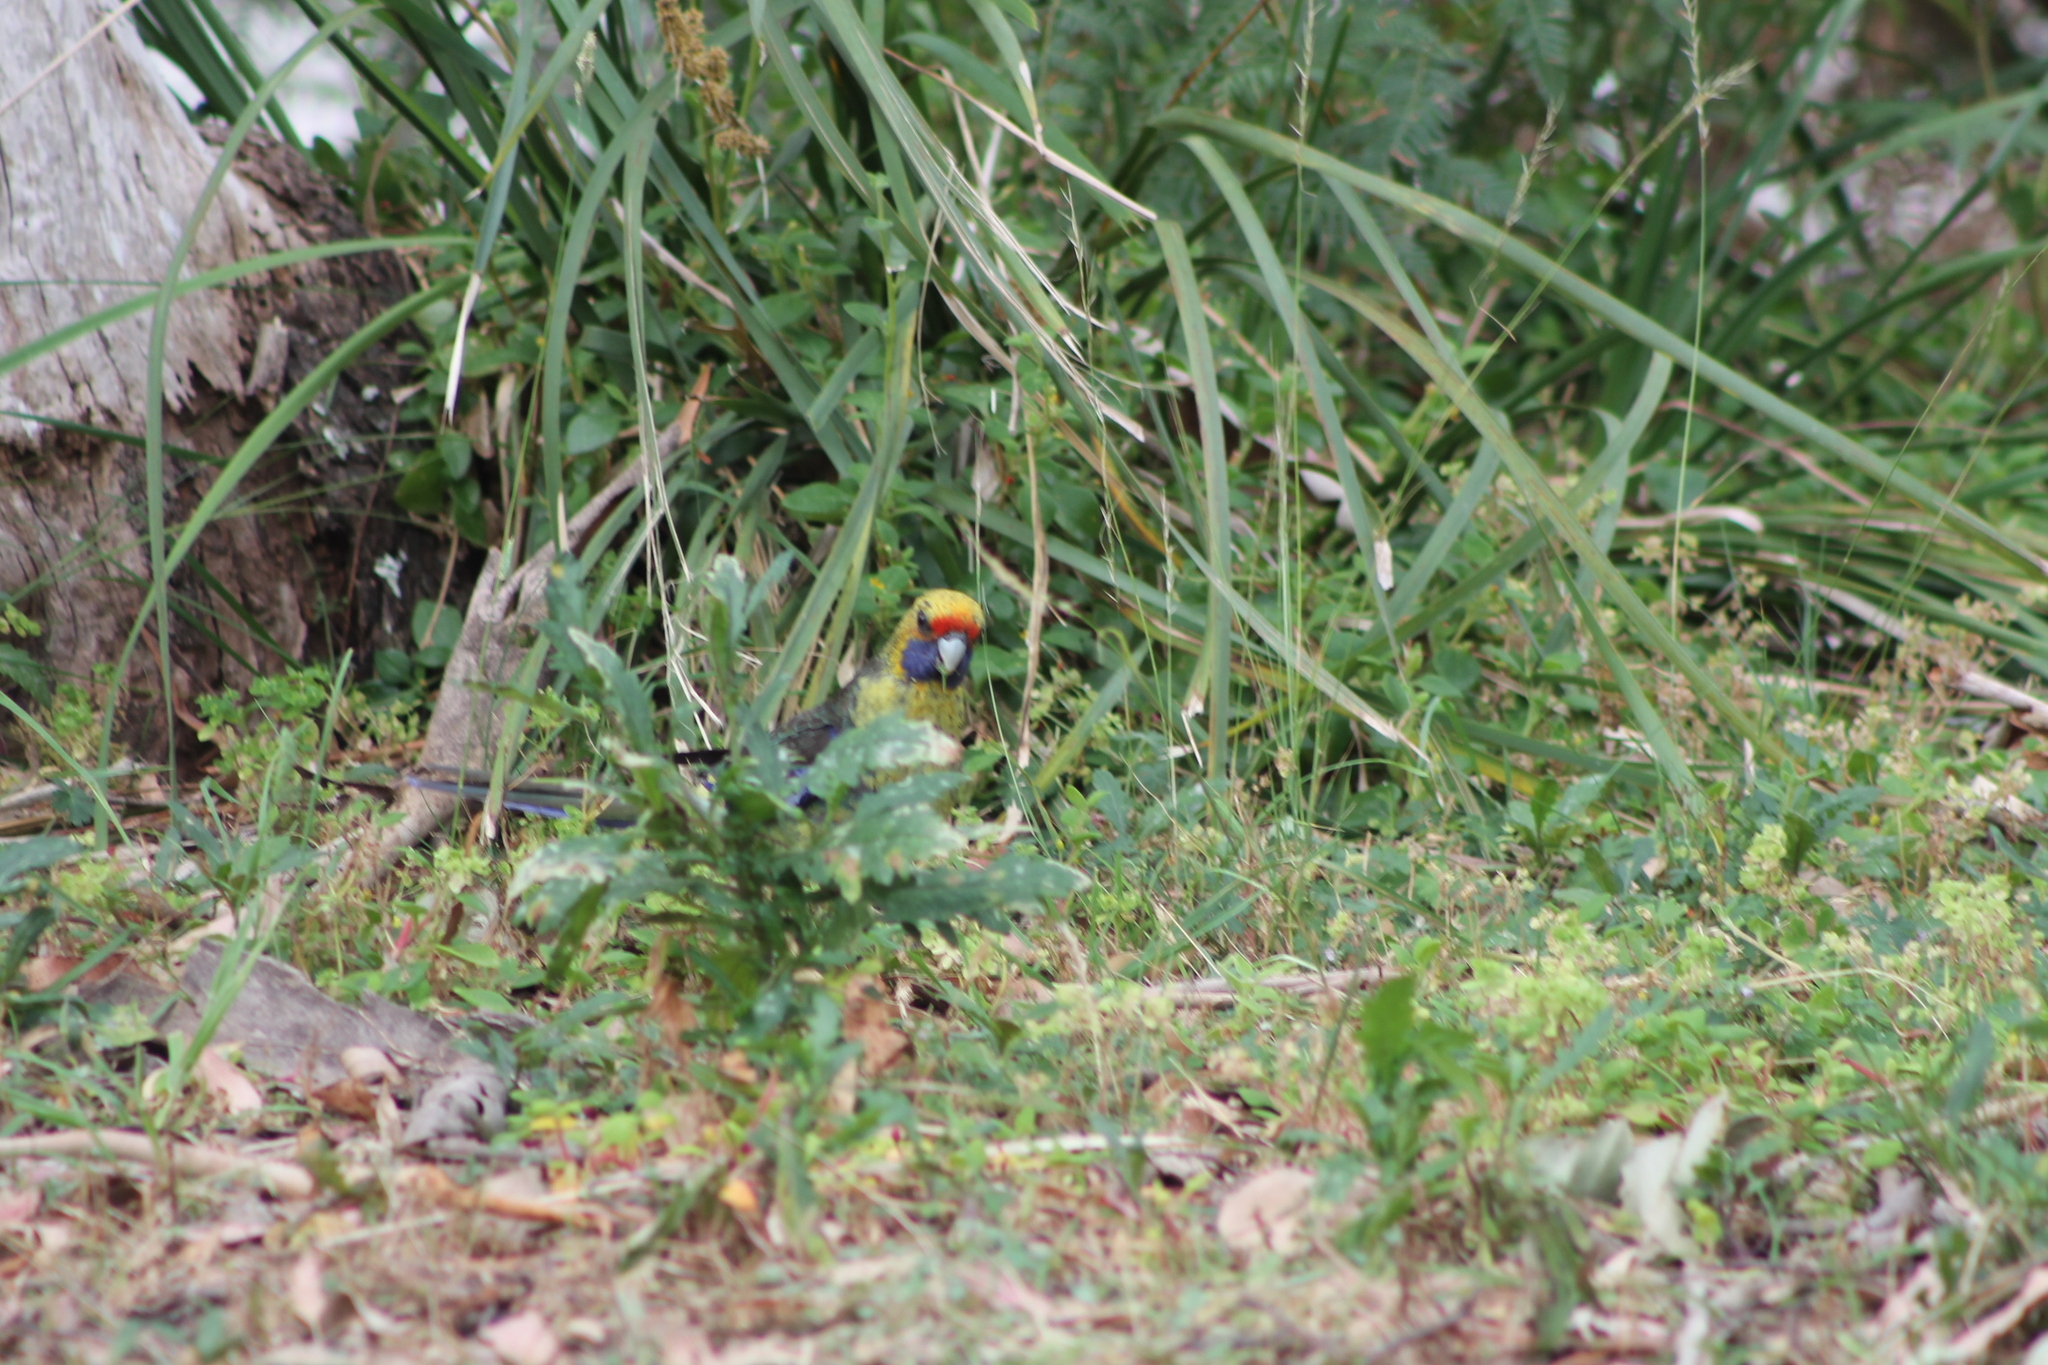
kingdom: Animalia
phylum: Chordata
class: Aves
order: Psittaciformes
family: Psittacidae
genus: Platycercus
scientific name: Platycercus caledonicus
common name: Green rosella
